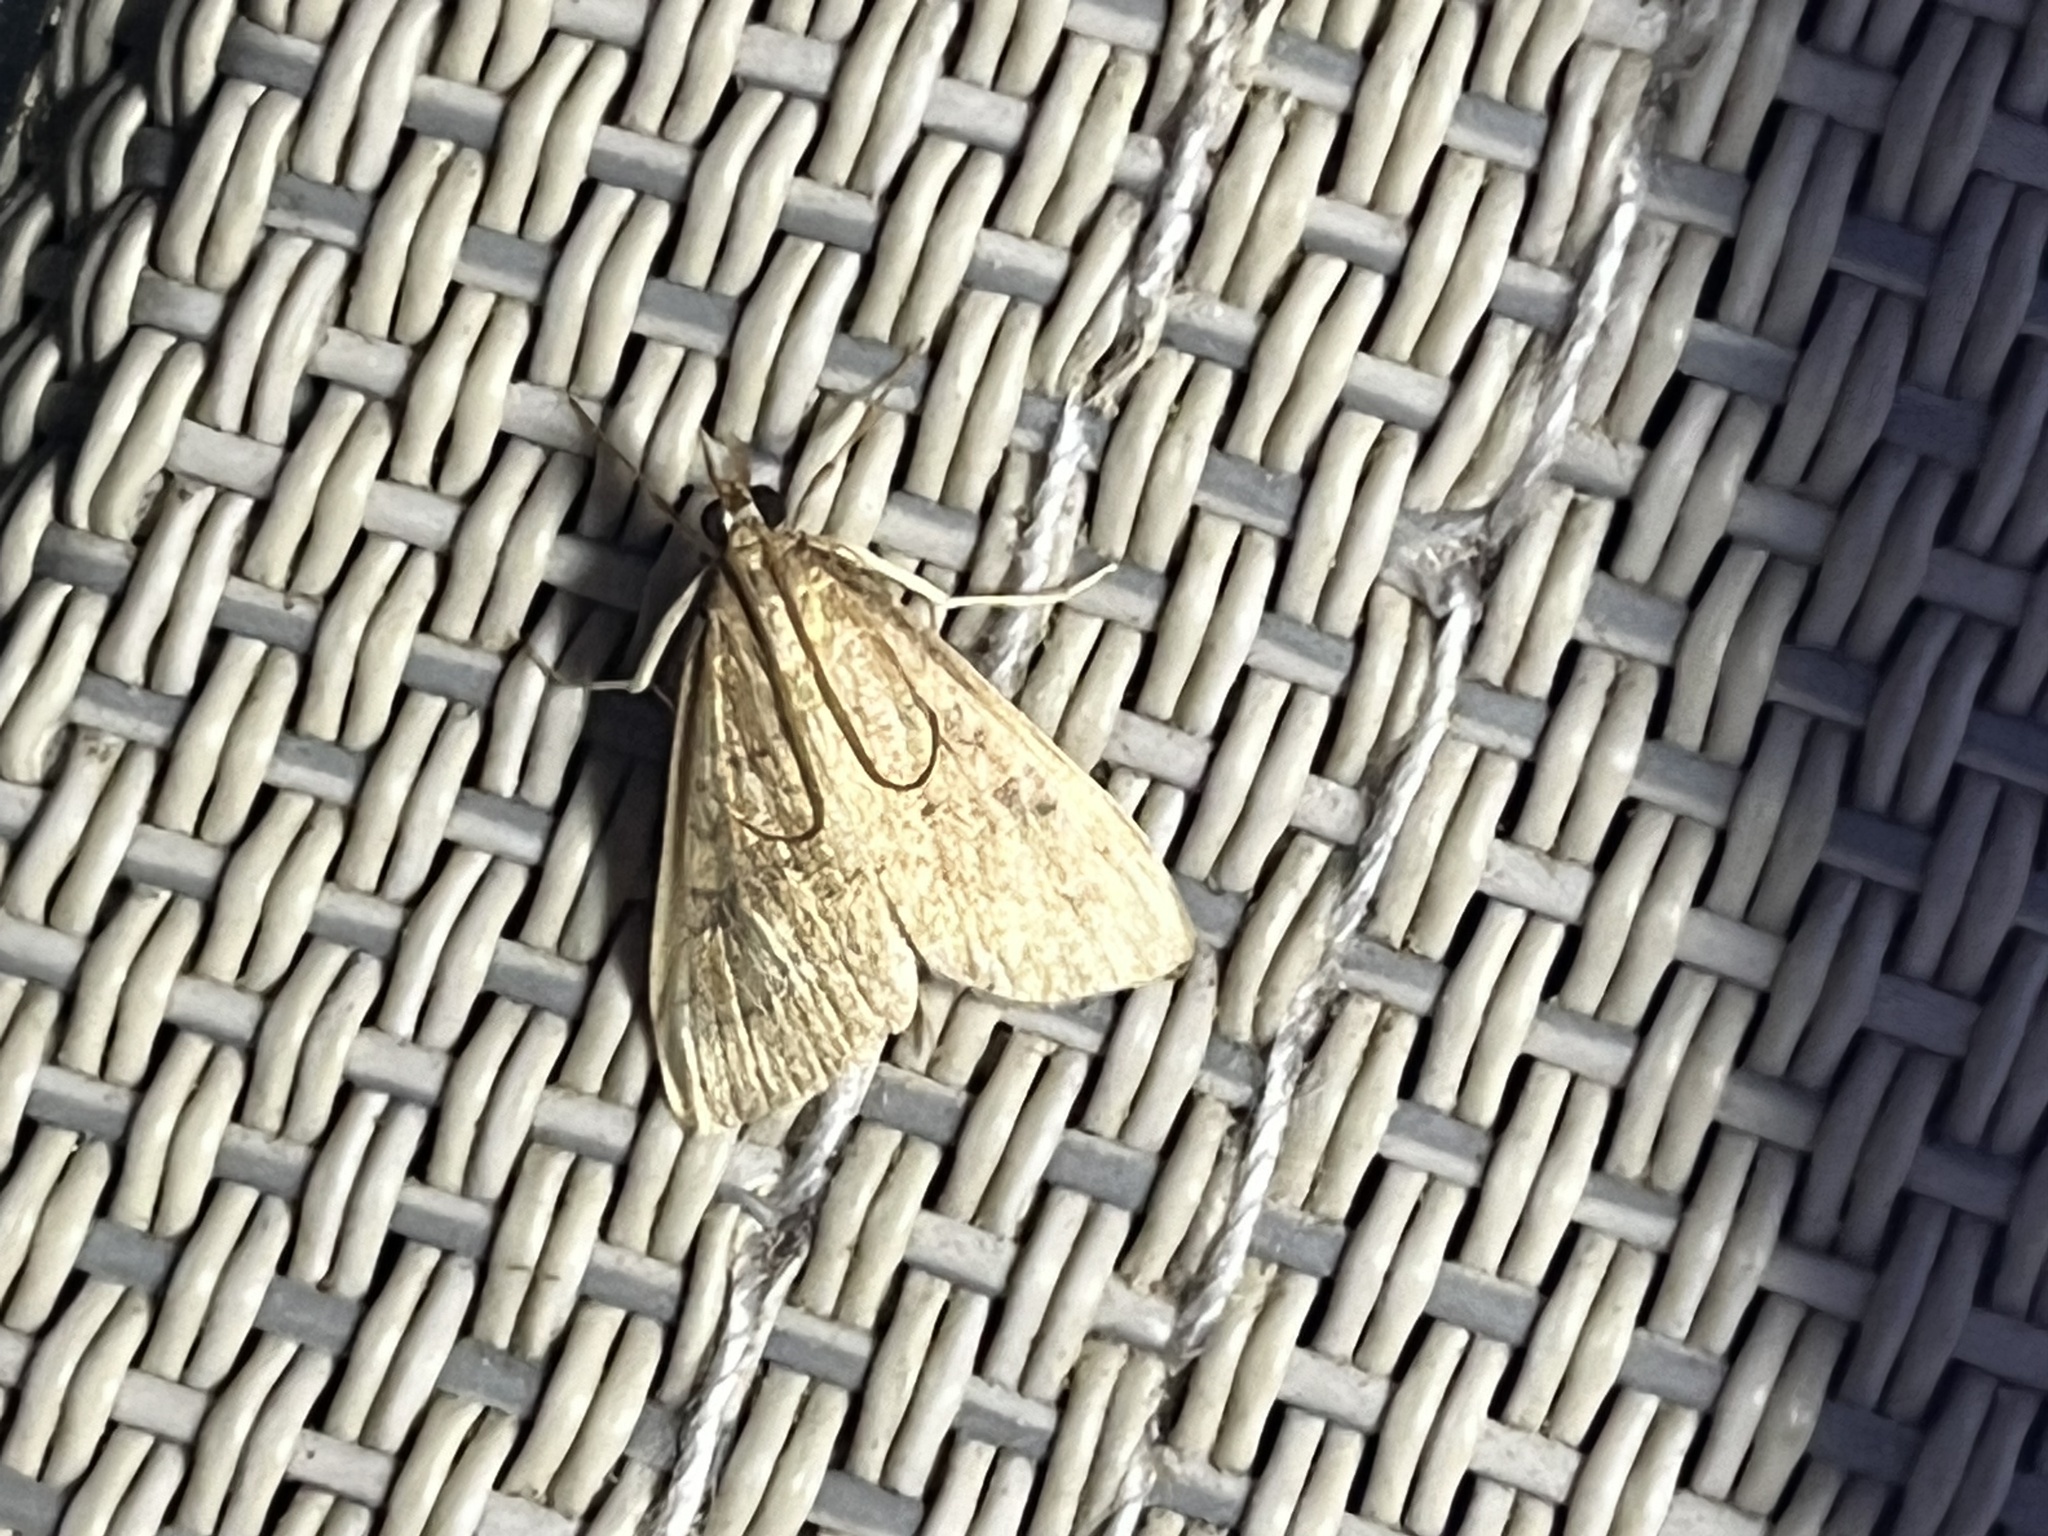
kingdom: Animalia
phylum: Arthropoda
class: Insecta
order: Lepidoptera
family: Crambidae
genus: Udea
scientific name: Udea rubigalis
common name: Celery leaftier moth
